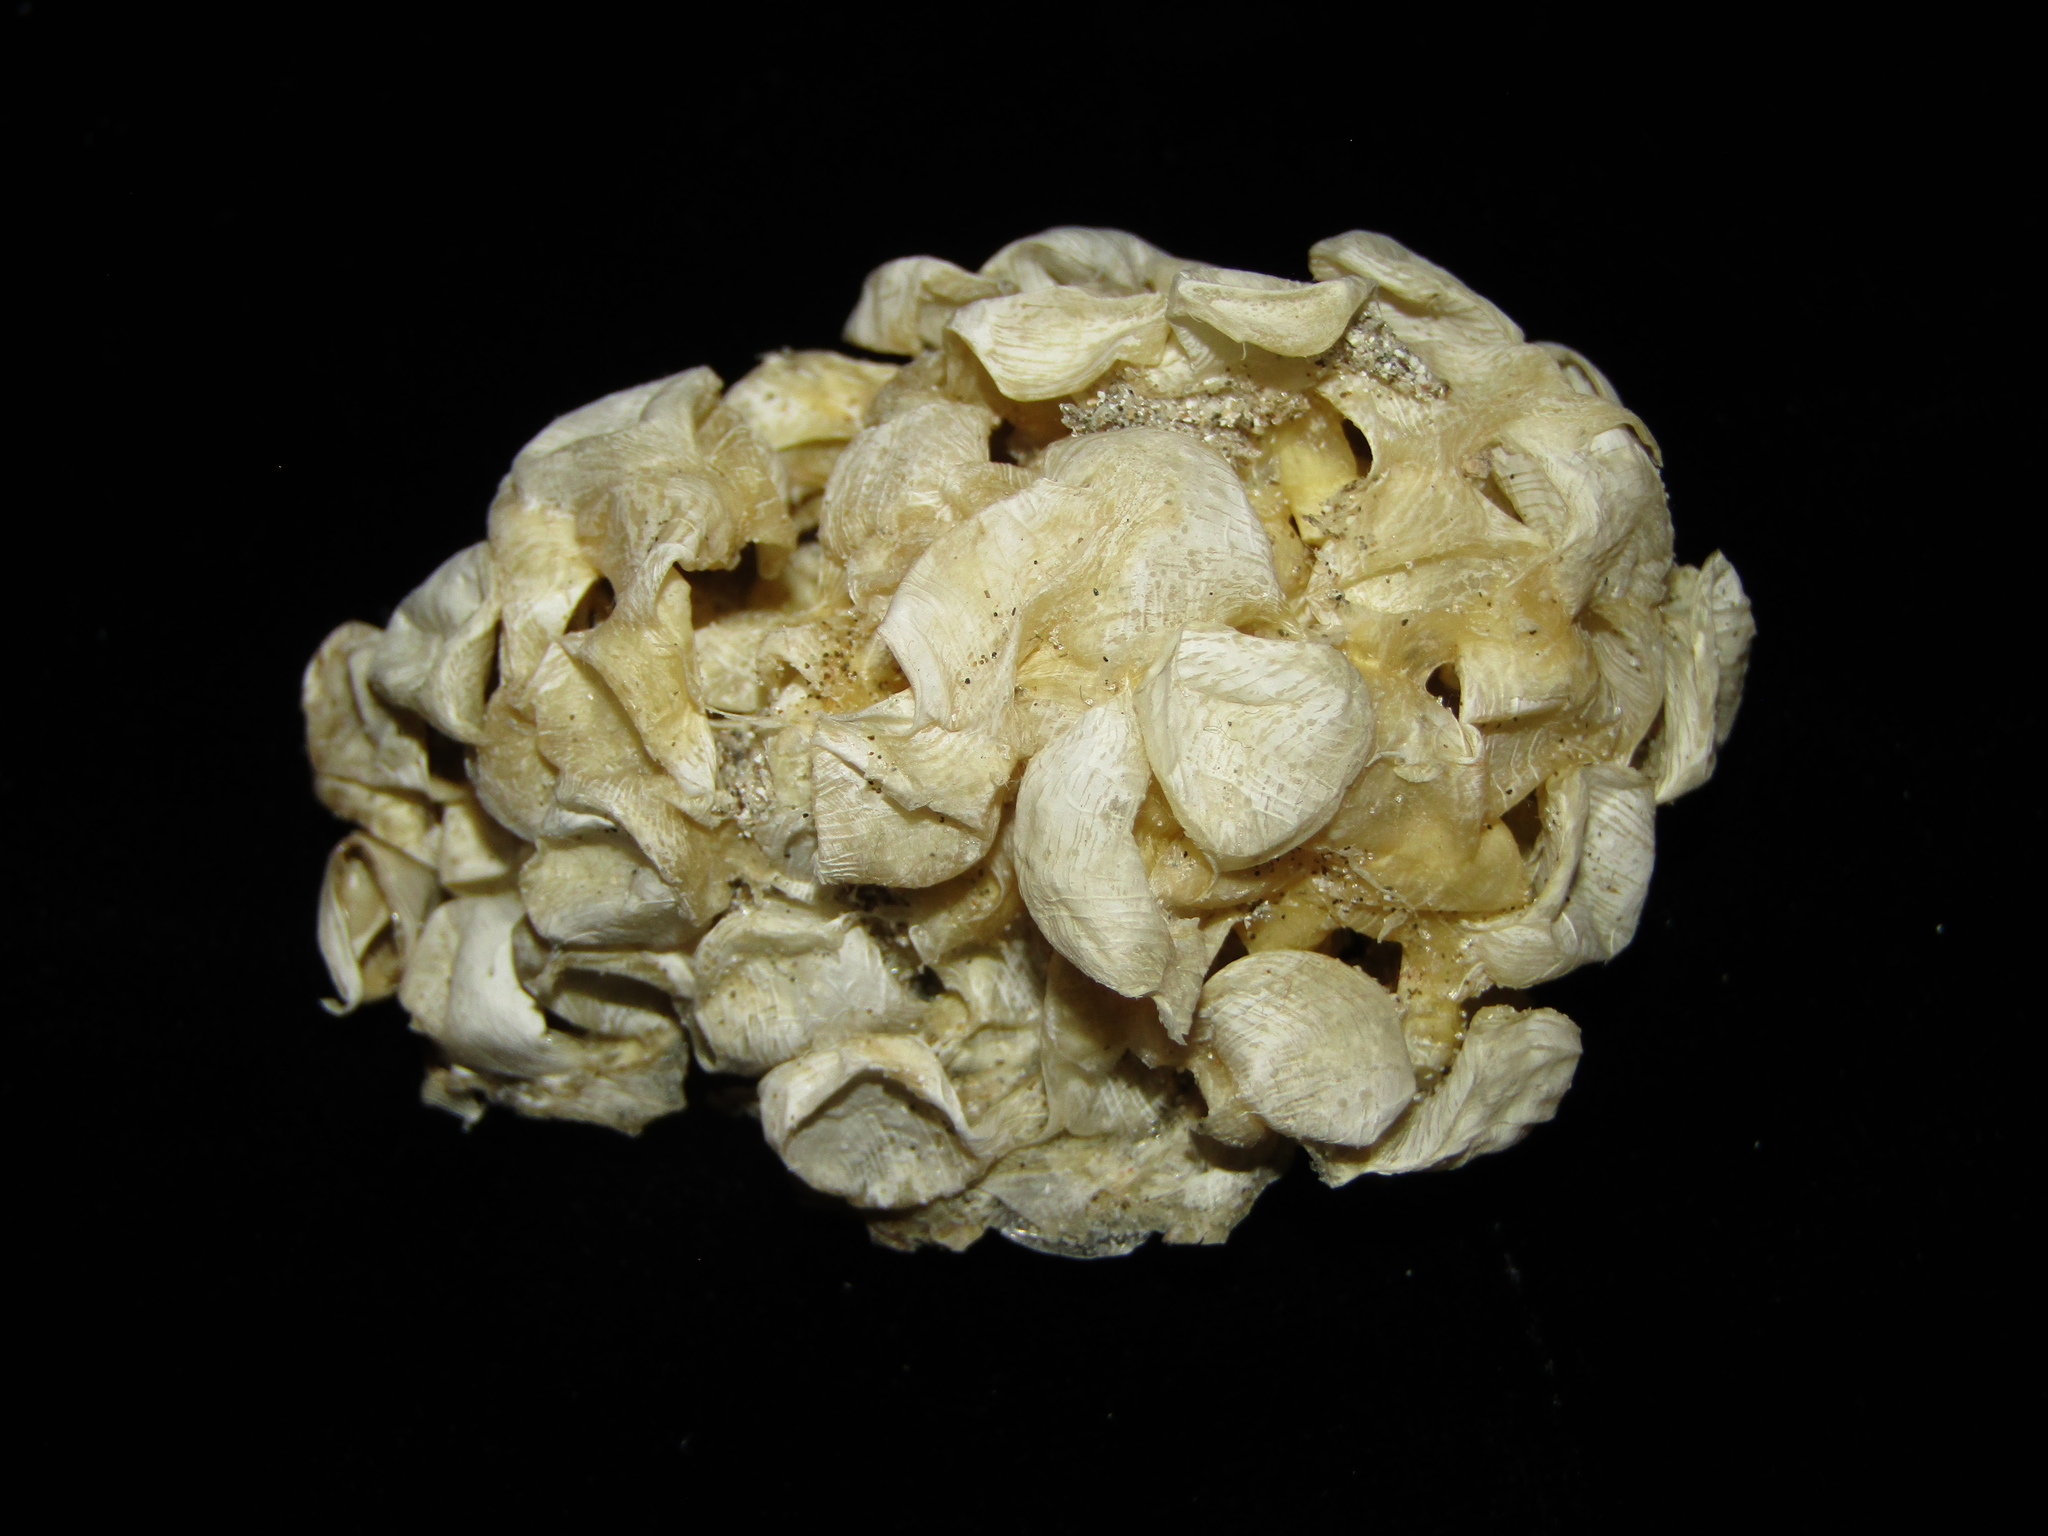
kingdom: Animalia
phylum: Mollusca
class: Gastropoda
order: Neogastropoda
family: Austrosiphonidae
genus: Penion
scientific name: Penion sulcatus
